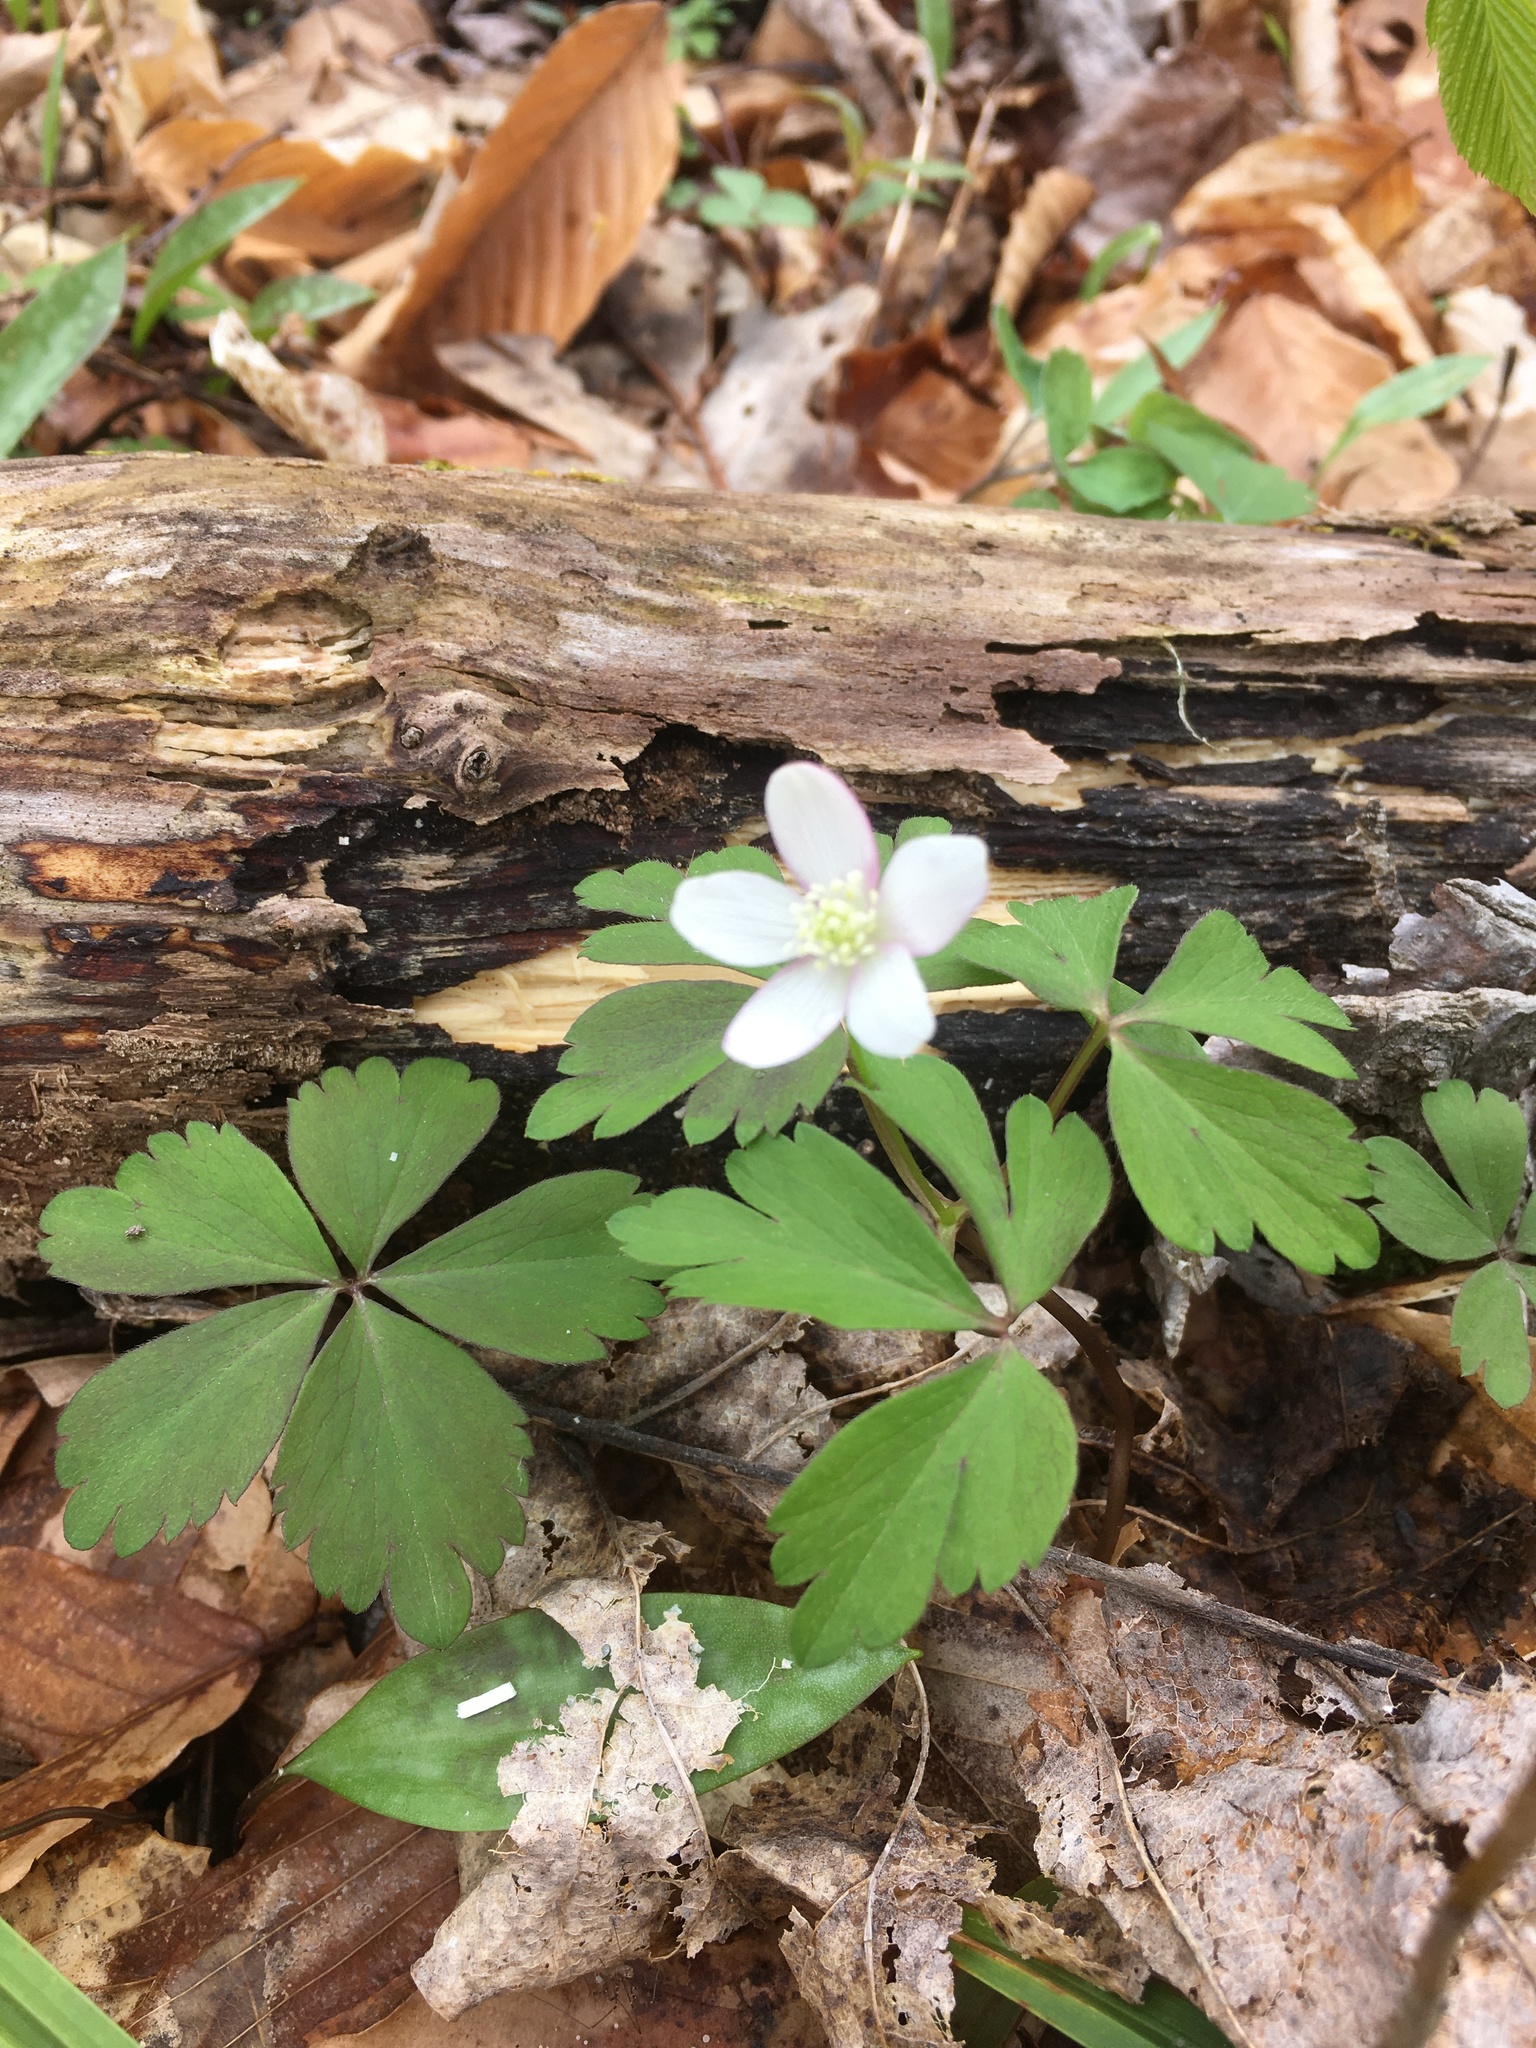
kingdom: Plantae
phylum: Tracheophyta
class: Magnoliopsida
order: Ranunculales
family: Ranunculaceae
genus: Anemone
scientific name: Anemone quinquefolia
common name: Wood anemone
